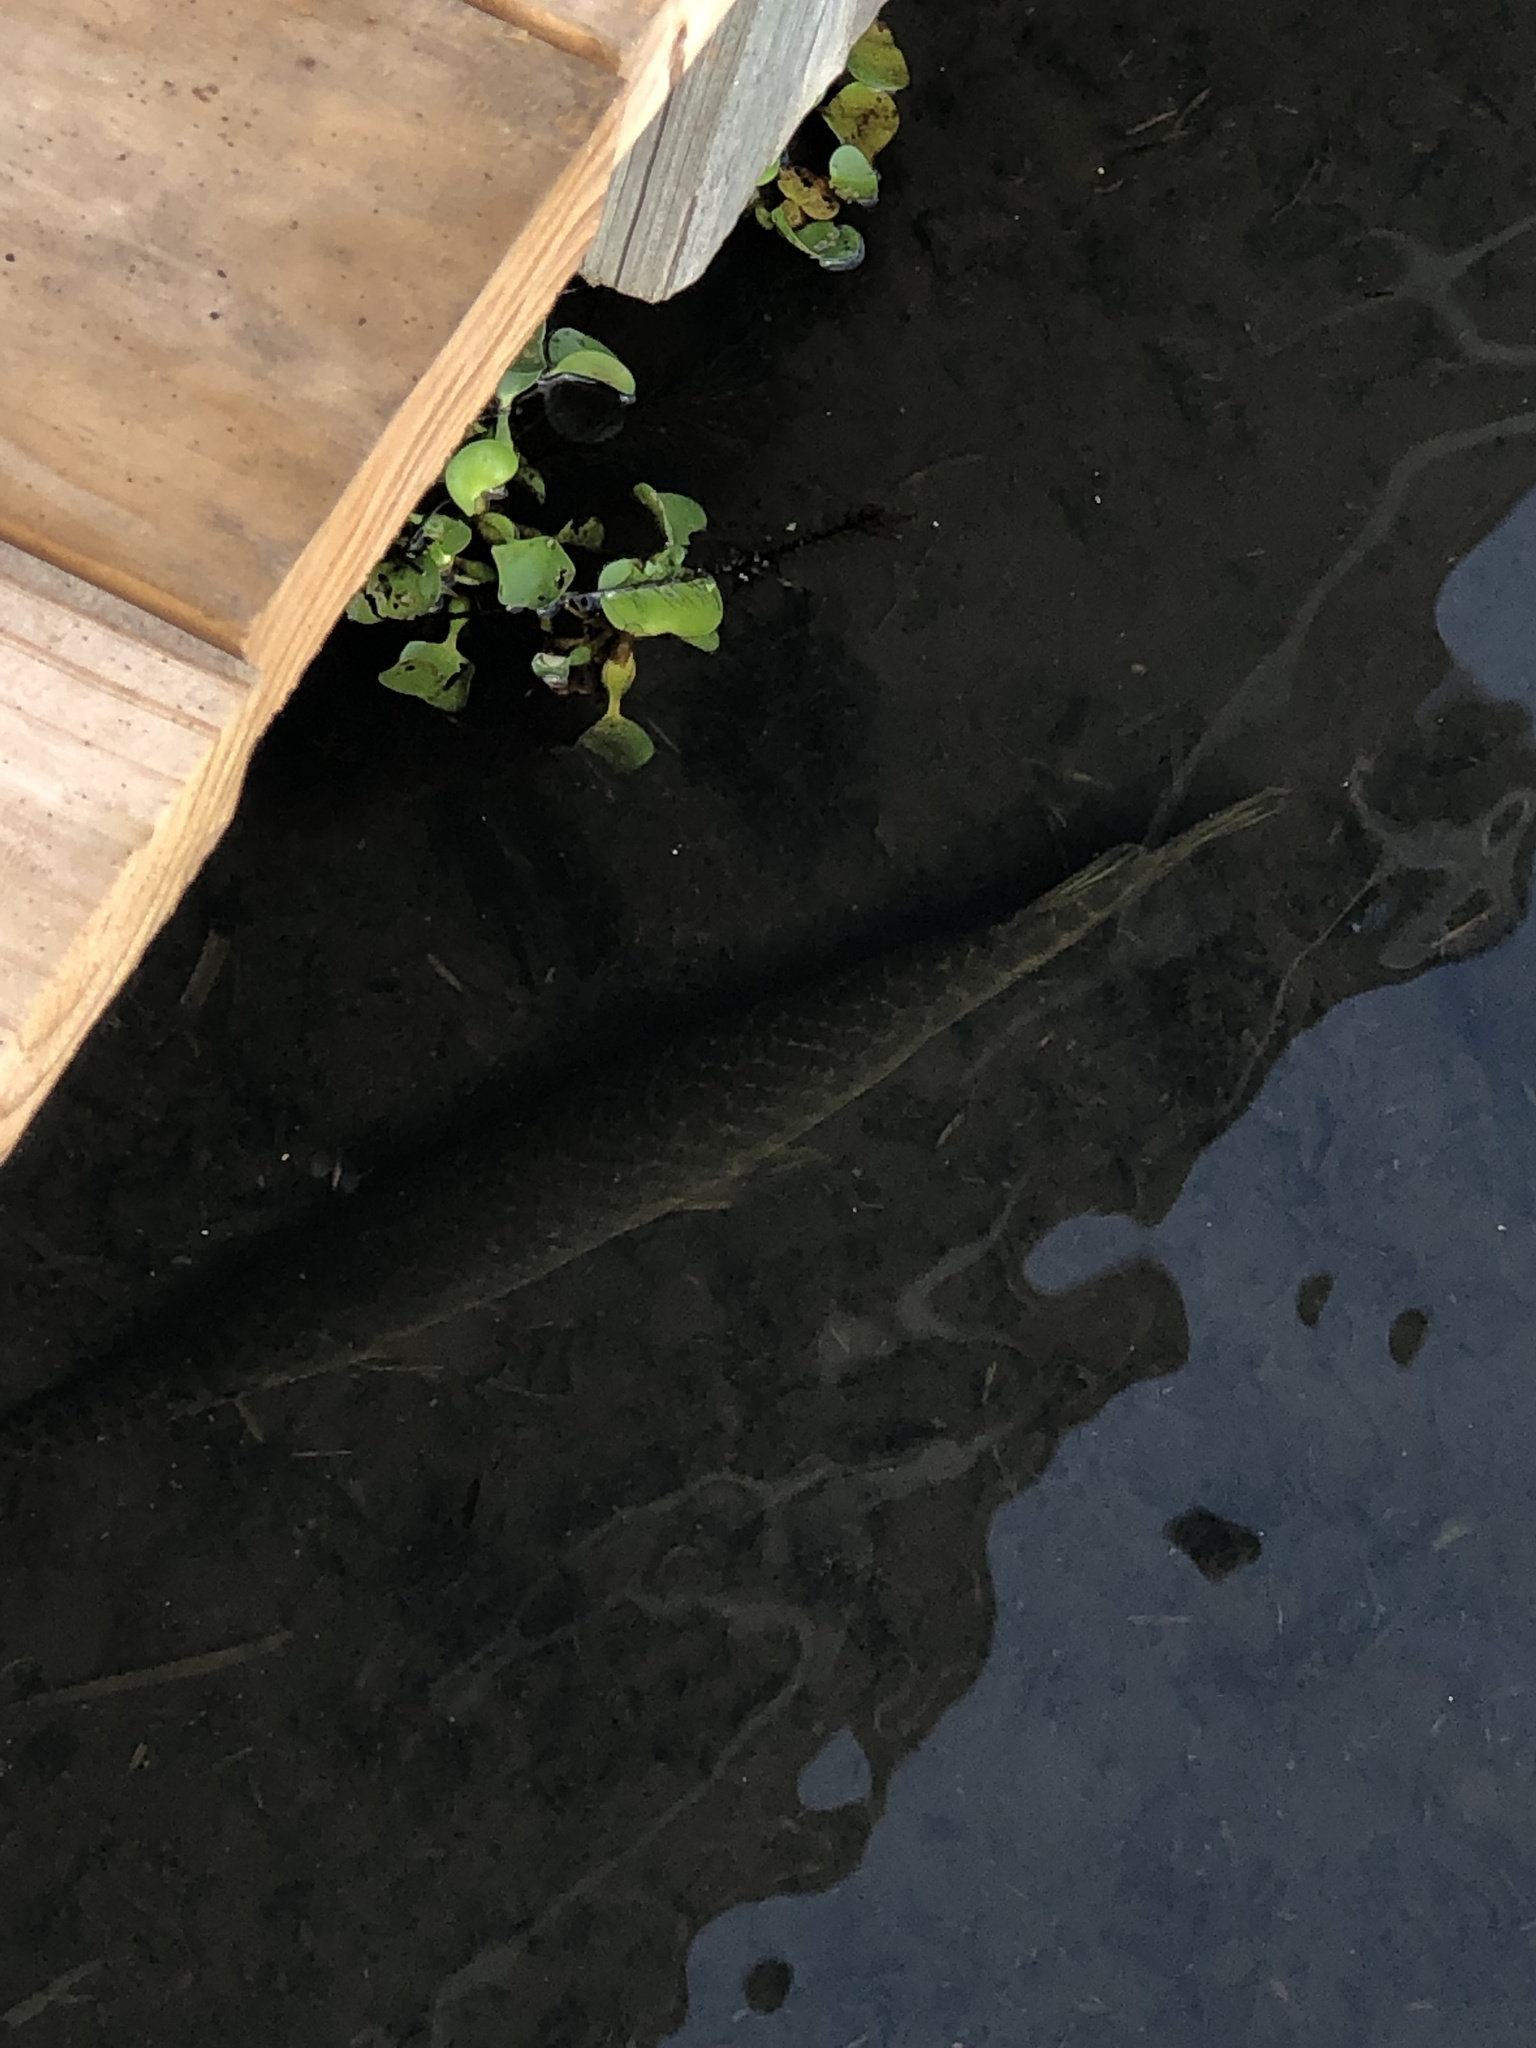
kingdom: Animalia
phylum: Chordata
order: Lepisosteiformes
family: Lepisosteidae
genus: Lepisosteus
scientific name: Lepisosteus oculatus
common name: Spotted gar
